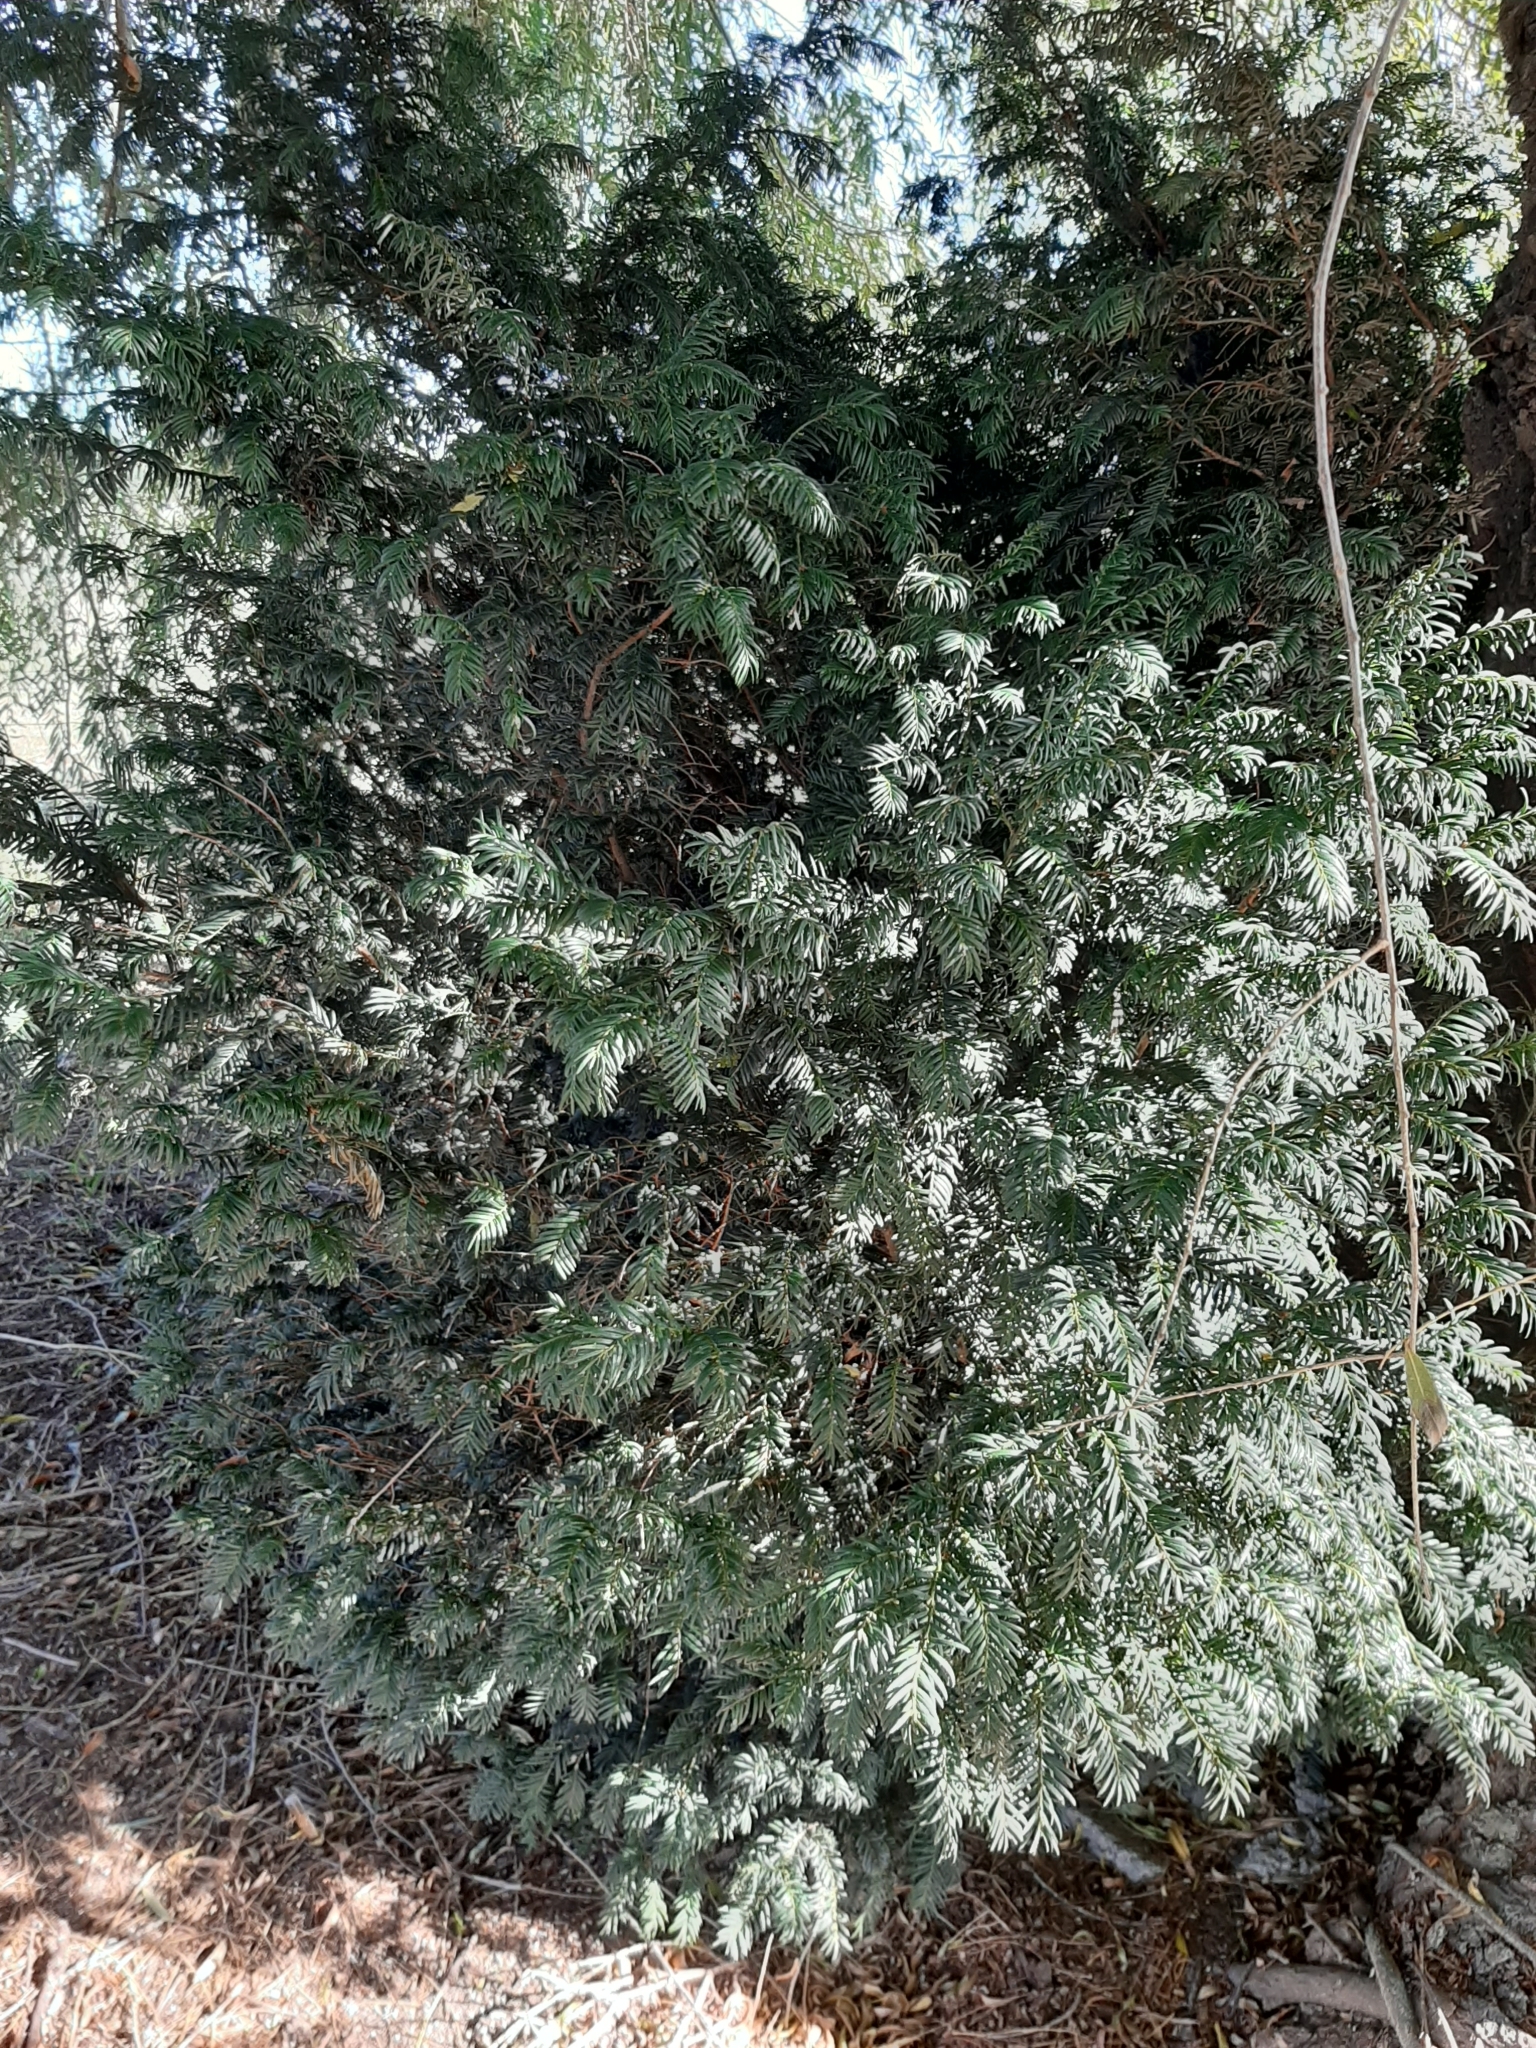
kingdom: Plantae
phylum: Tracheophyta
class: Pinopsida
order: Pinales
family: Taxaceae
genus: Taxus
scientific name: Taxus baccata
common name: Yew
